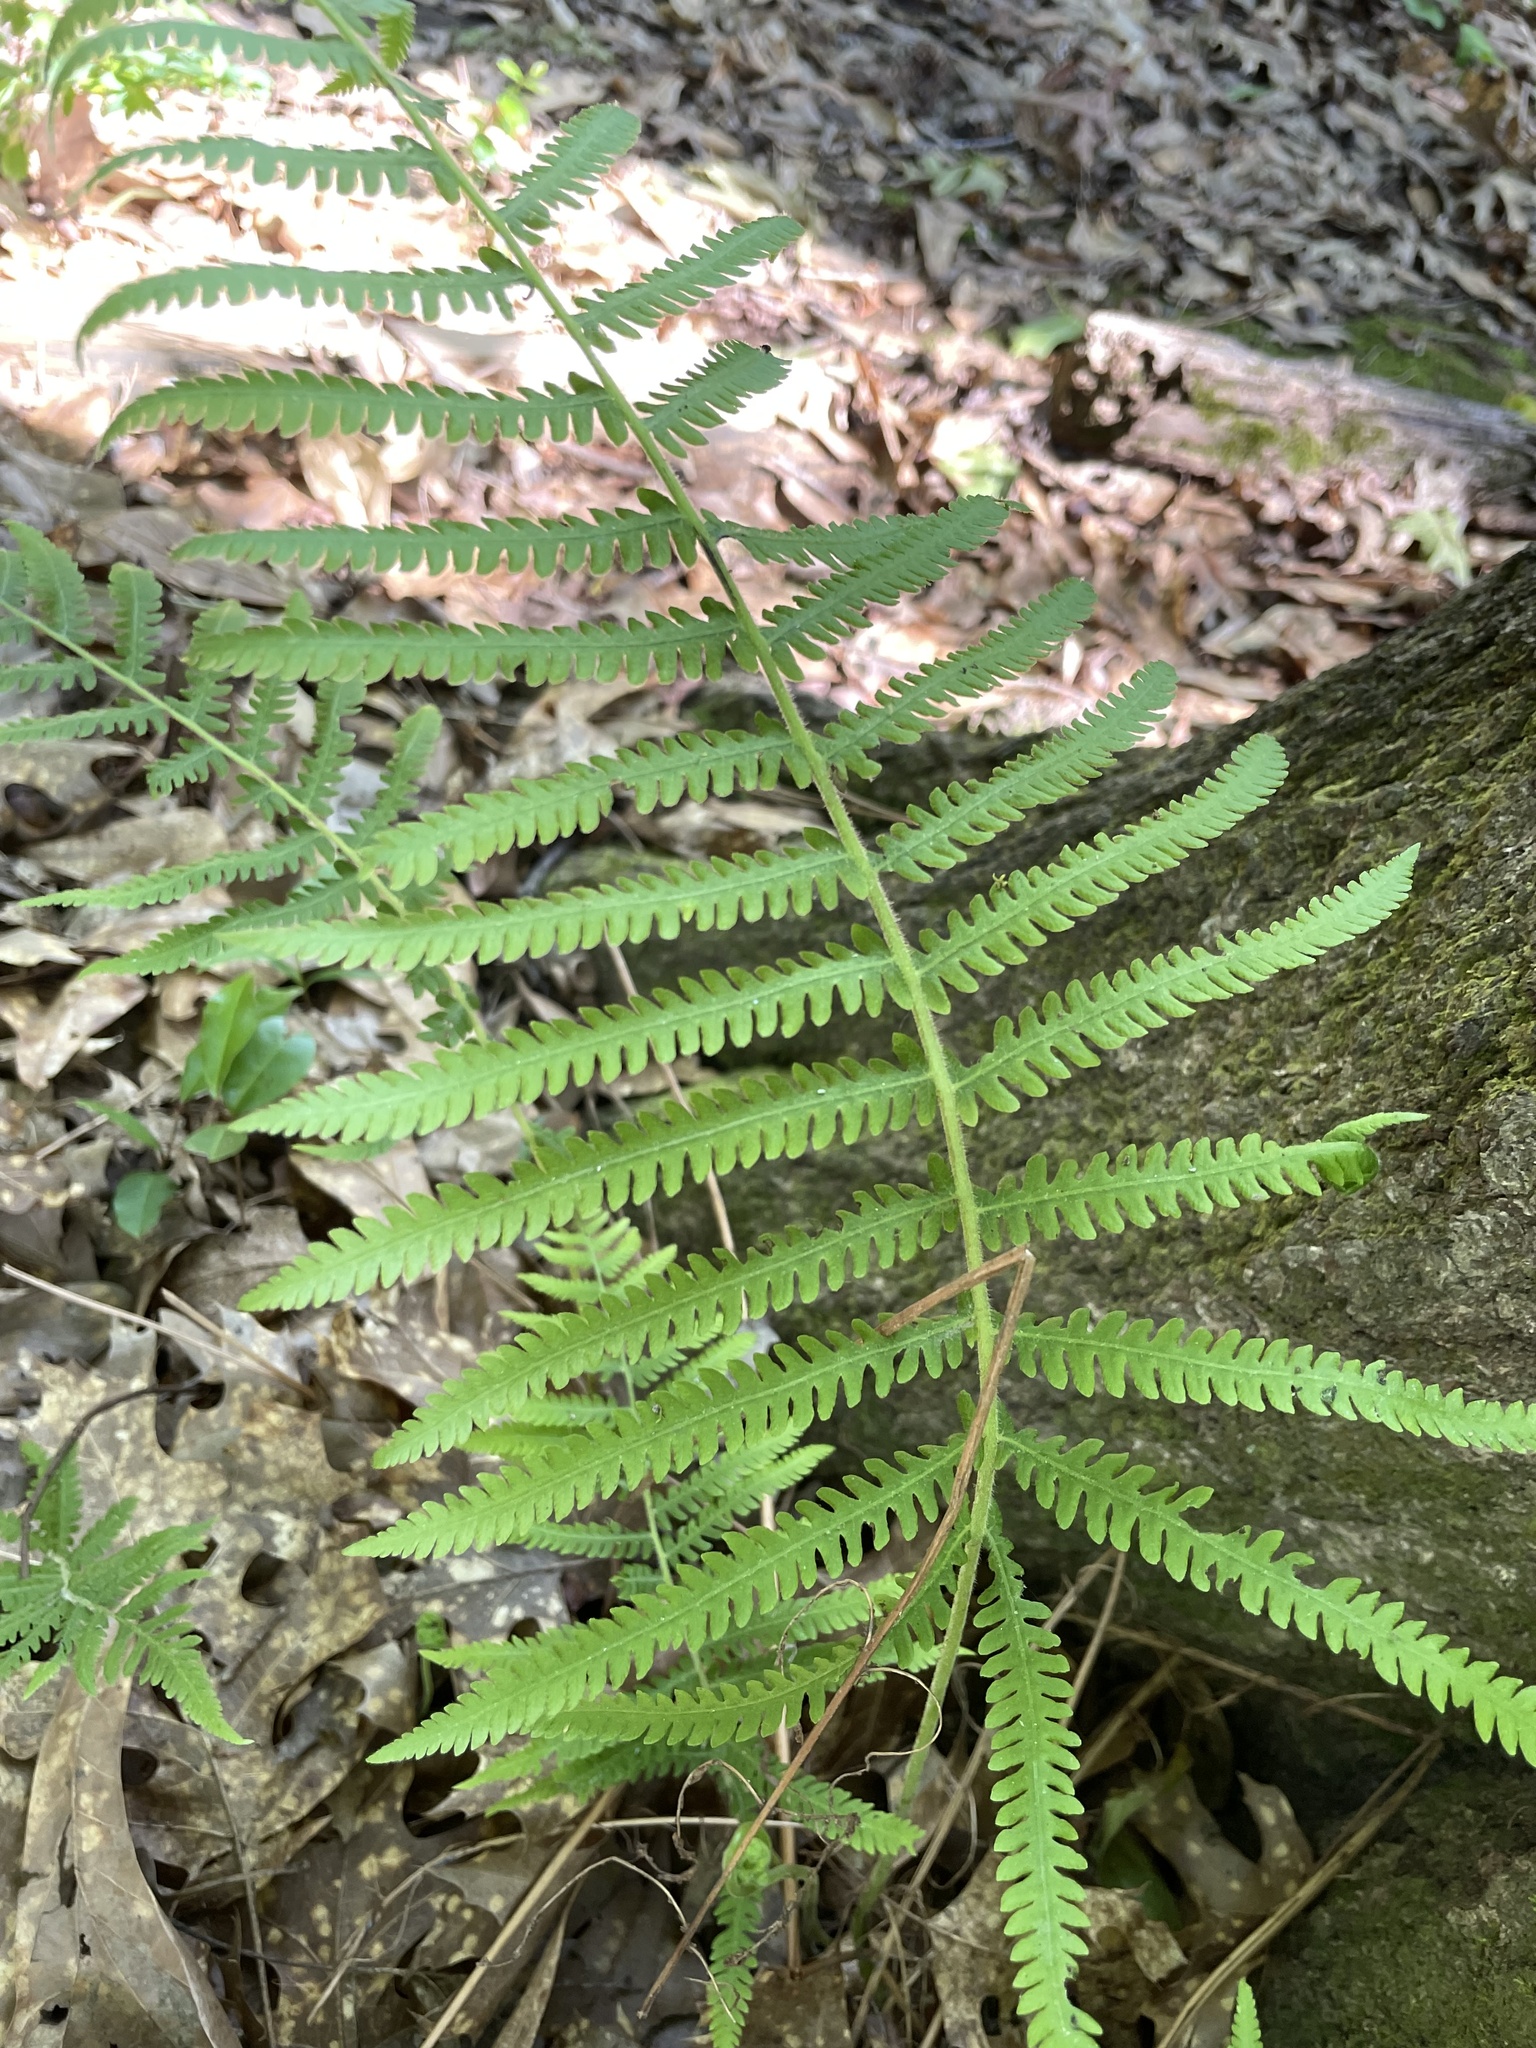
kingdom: Plantae
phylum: Tracheophyta
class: Polypodiopsida
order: Polypodiales
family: Thelypteridaceae
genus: Pelazoneuron
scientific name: Pelazoneuron kunthii
